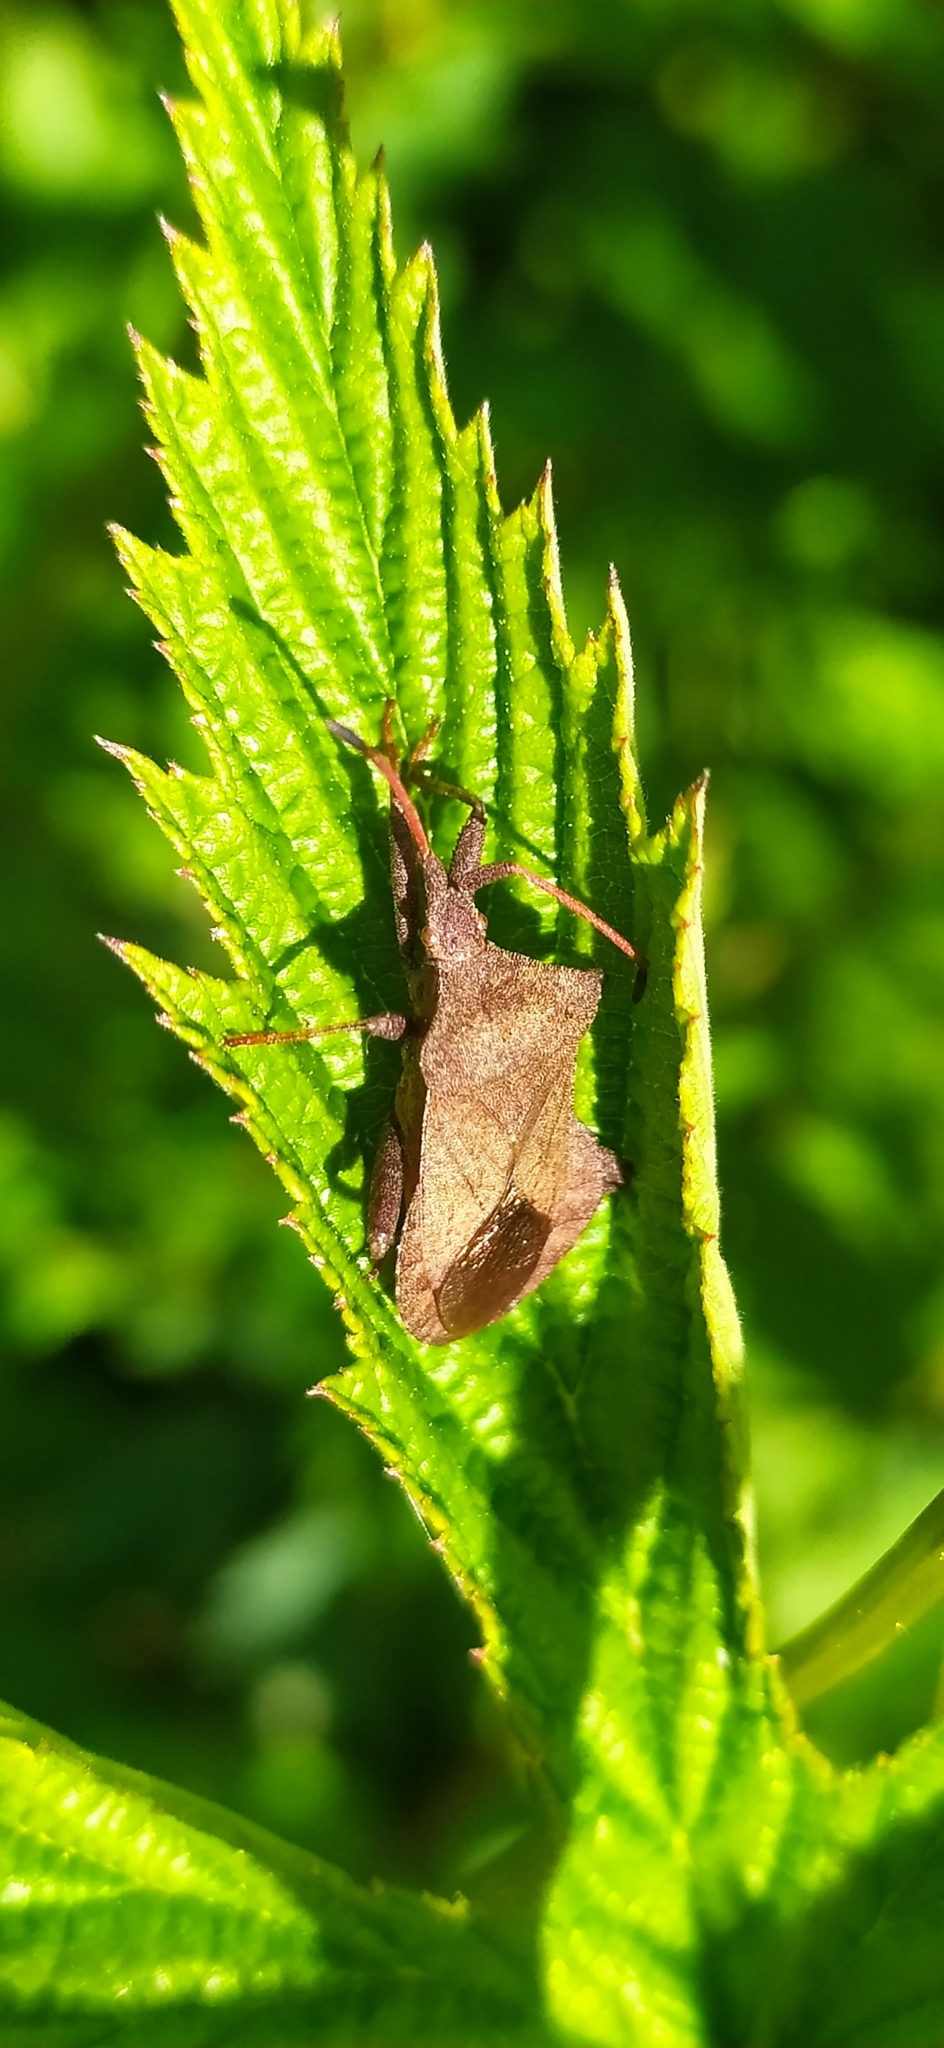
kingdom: Animalia
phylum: Arthropoda
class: Insecta
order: Hemiptera
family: Coreidae
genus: Coreus
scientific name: Coreus marginatus
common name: Dock bug
